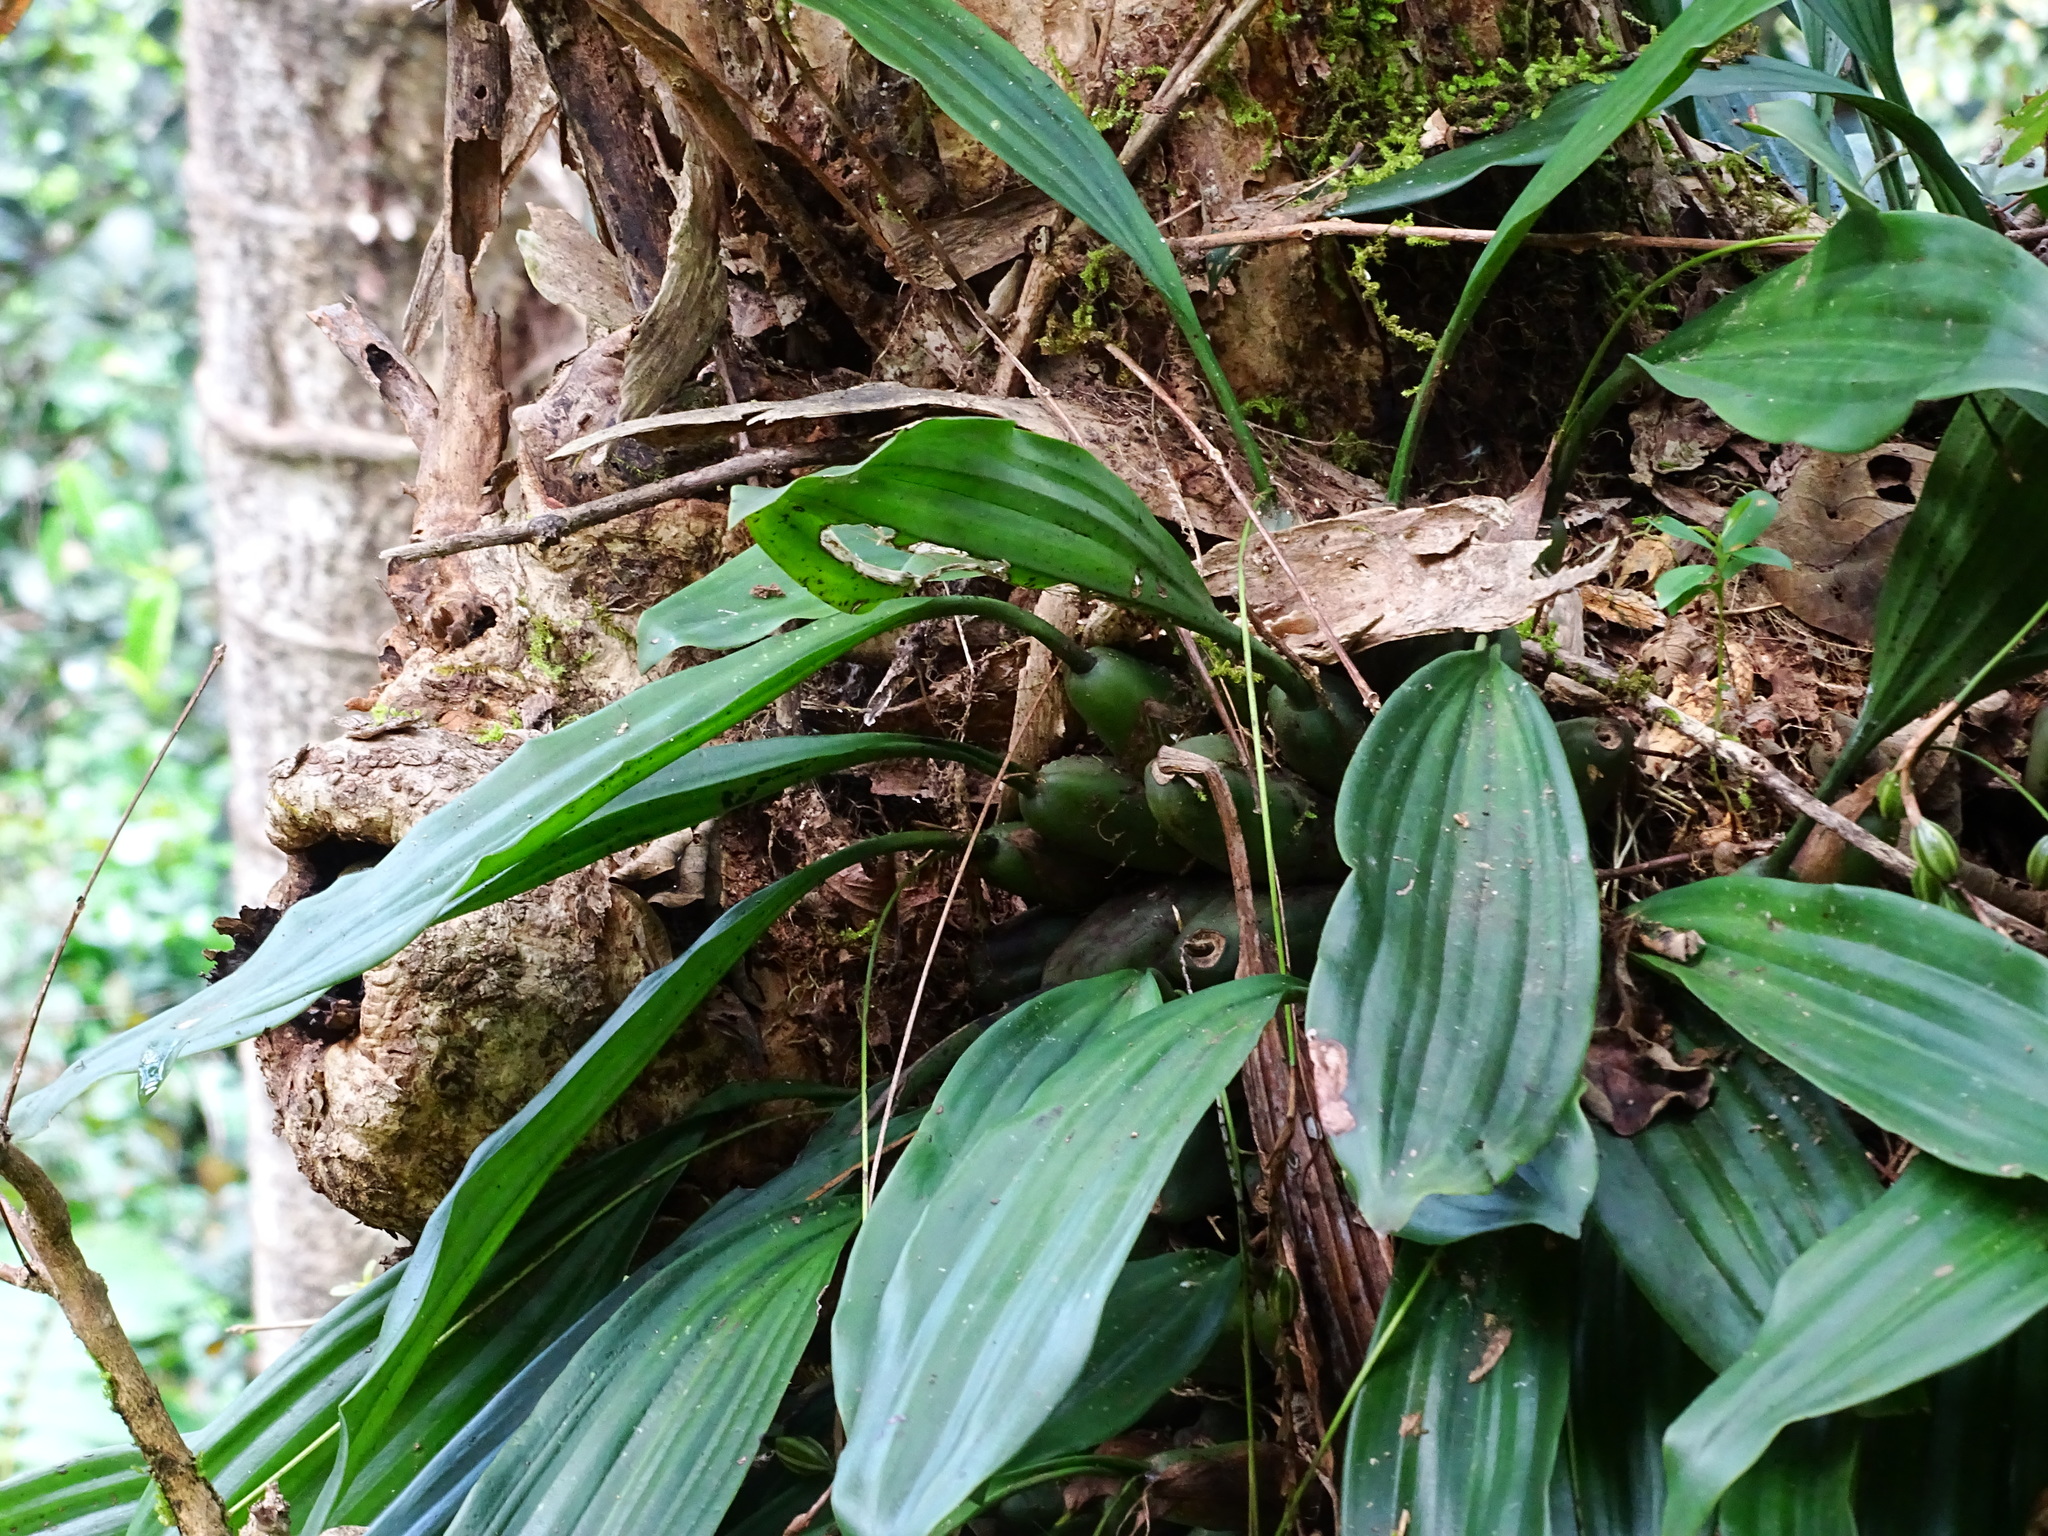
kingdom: Plantae
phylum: Tracheophyta
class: Liliopsida
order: Asparagales
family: Orchidaceae
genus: Coelogyne
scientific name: Coelogyne pallida
